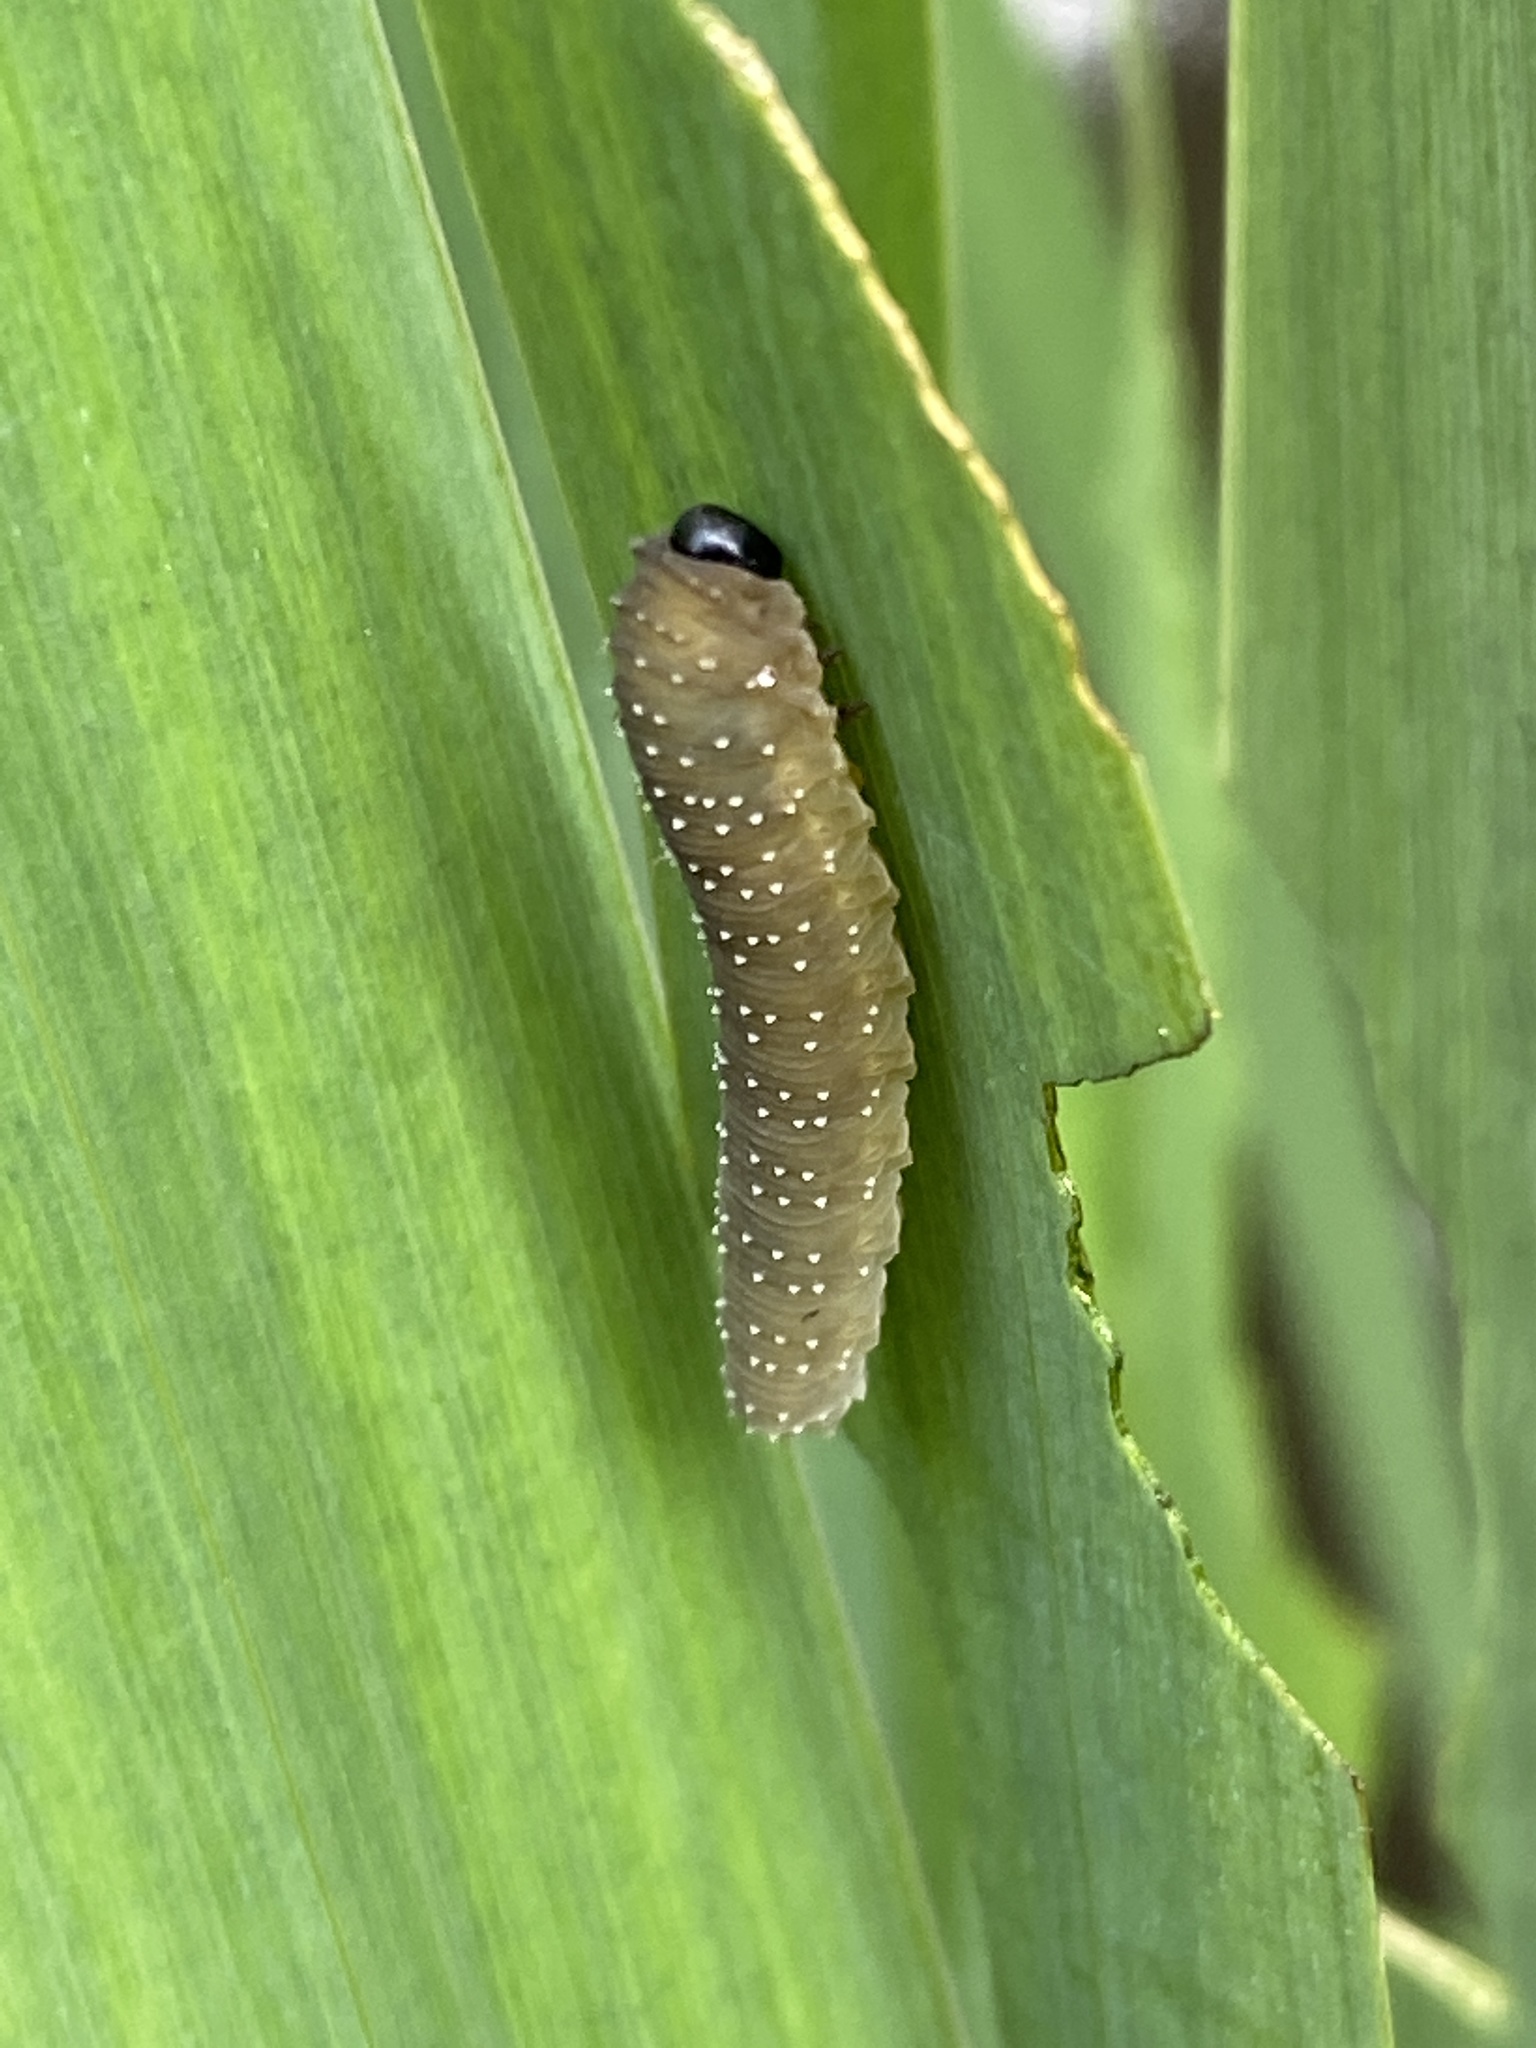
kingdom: Animalia
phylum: Arthropoda
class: Insecta
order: Hymenoptera
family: Tenthredinidae
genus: Rhadinoceraea
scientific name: Rhadinoceraea micans
